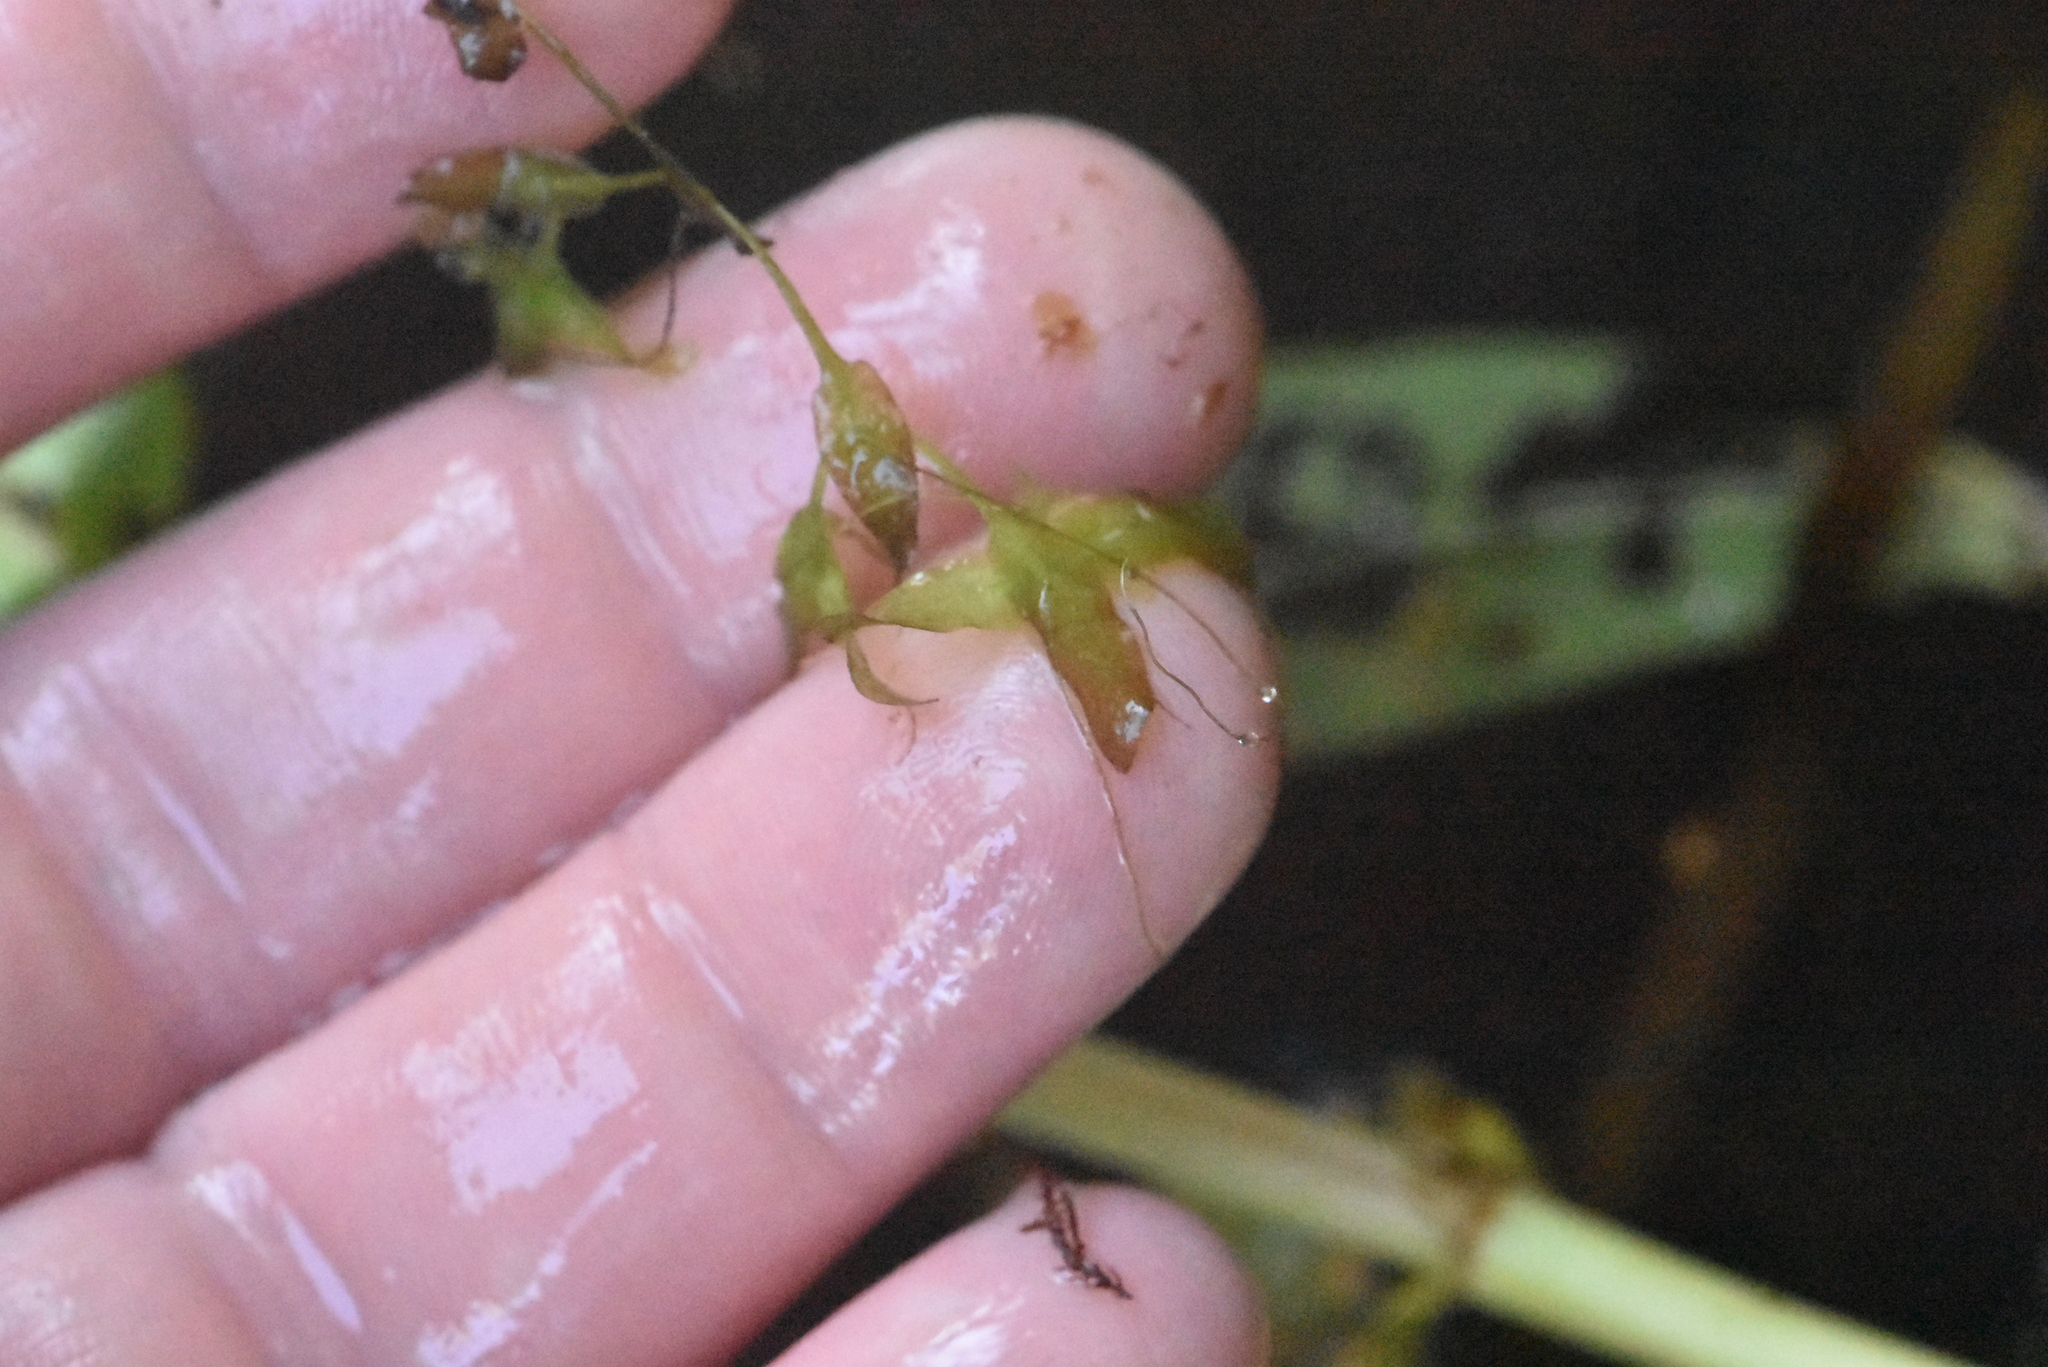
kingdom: Plantae
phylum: Tracheophyta
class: Liliopsida
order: Alismatales
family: Araceae
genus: Lemna
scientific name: Lemna trisulca
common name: Ivy-leaved duckweed
